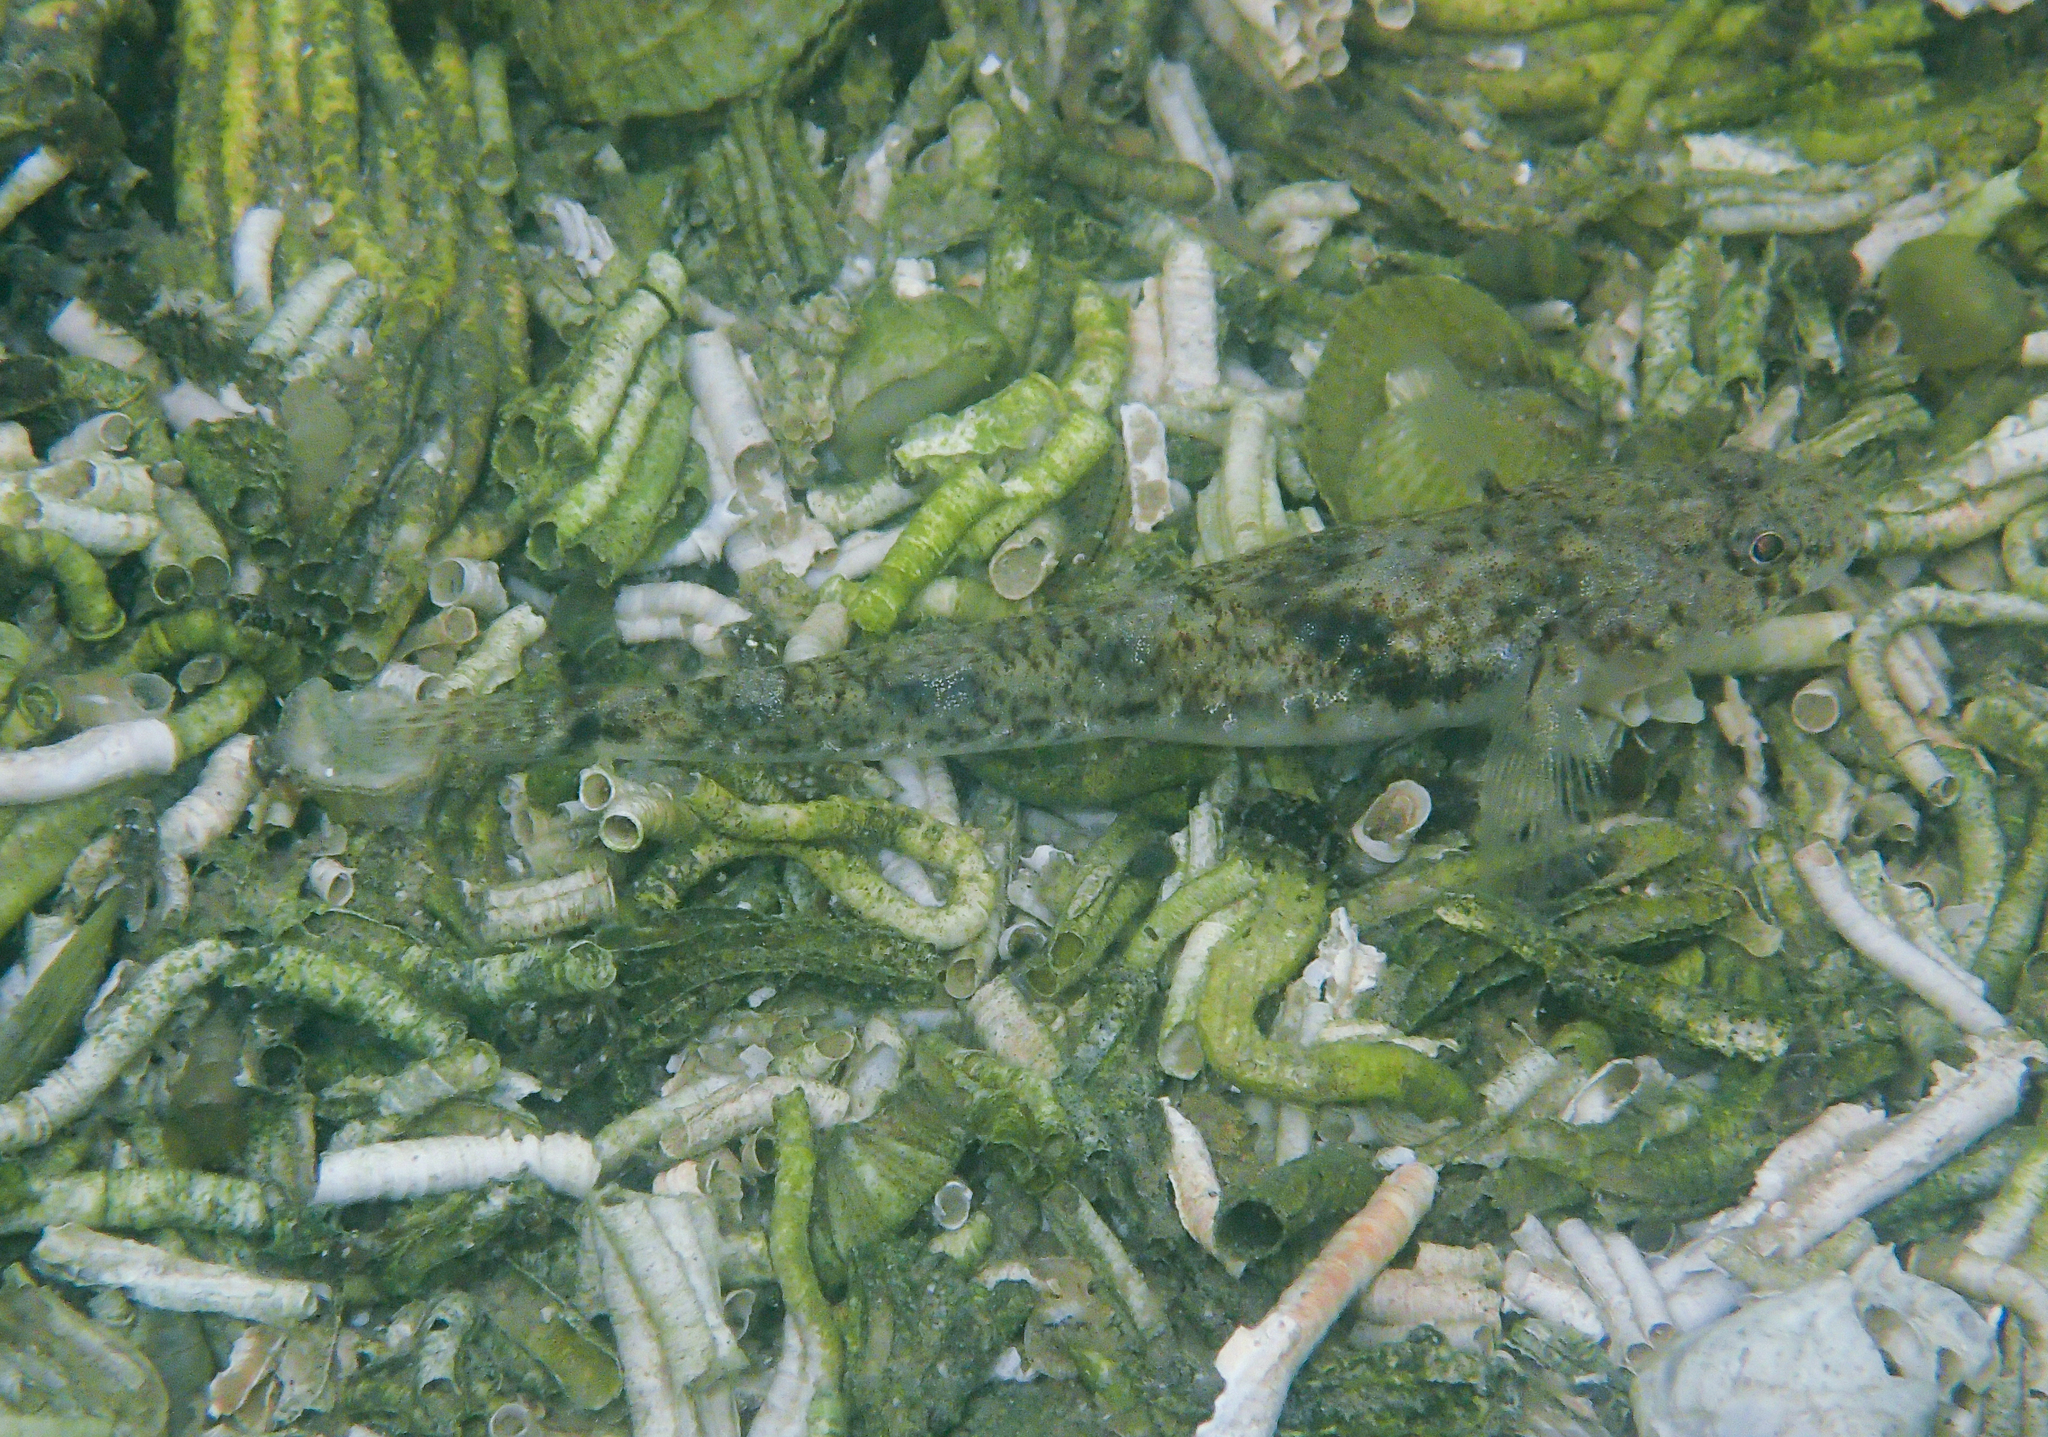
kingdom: Animalia
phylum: Chordata
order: Perciformes
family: Gobiidae
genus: Pomatoschistus
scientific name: Pomatoschistus microps
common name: Common goby
